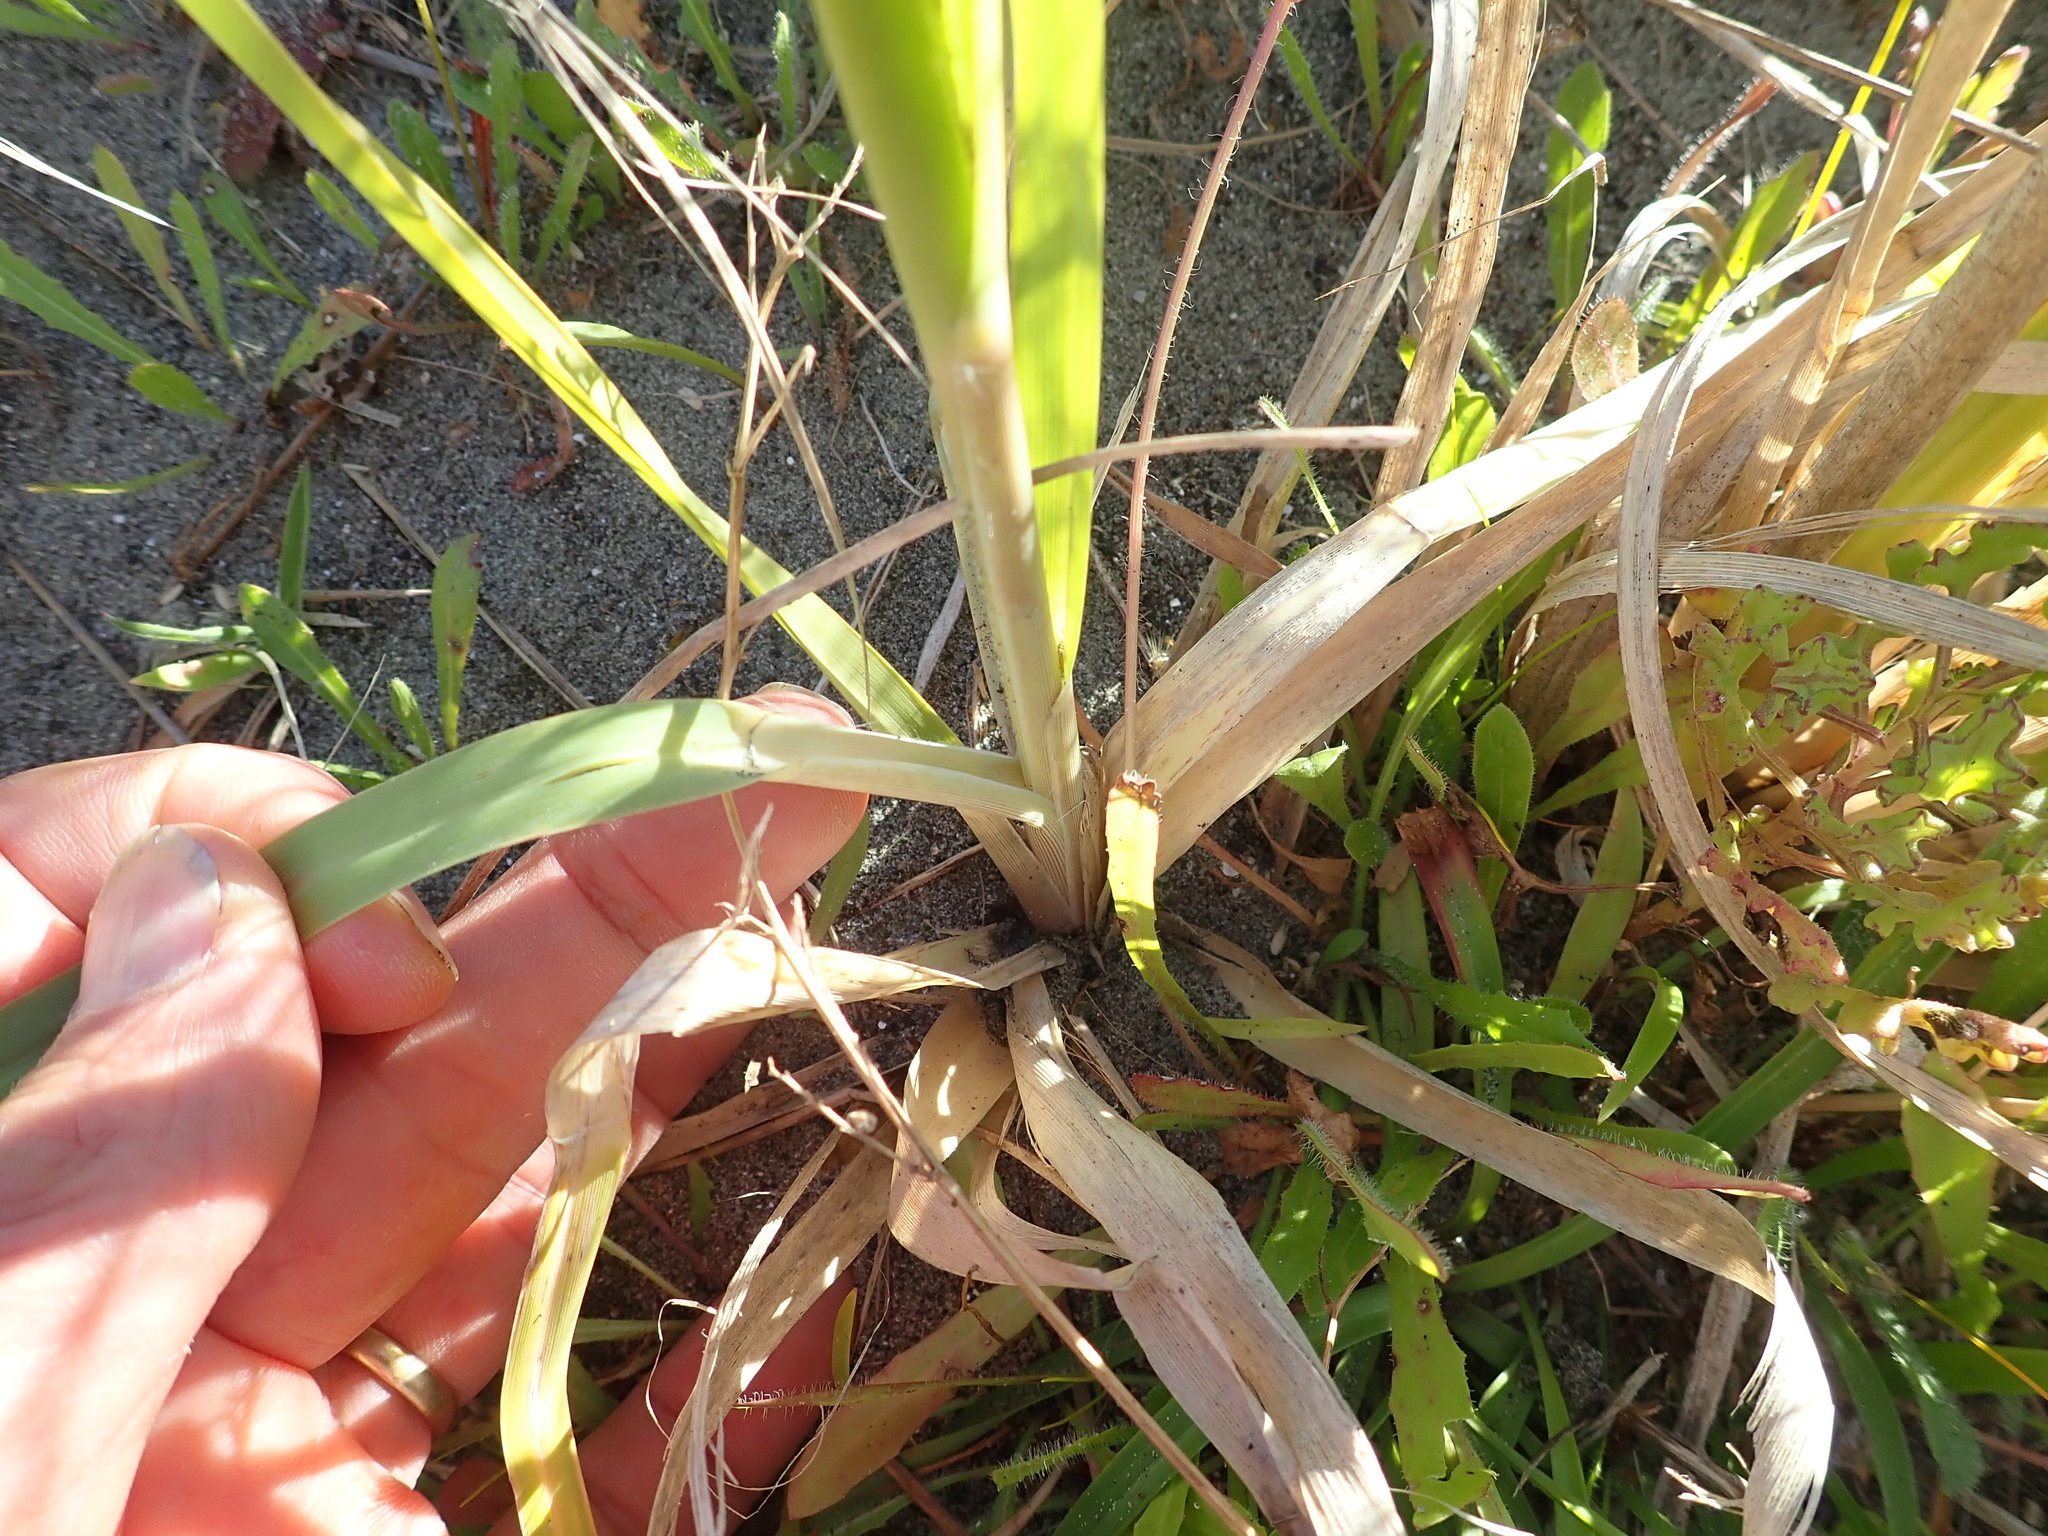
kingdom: Plantae
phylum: Tracheophyta
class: Liliopsida
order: Poales
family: Poaceae
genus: Cortaderia
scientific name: Cortaderia selloana
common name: Uruguayan pampas grass
